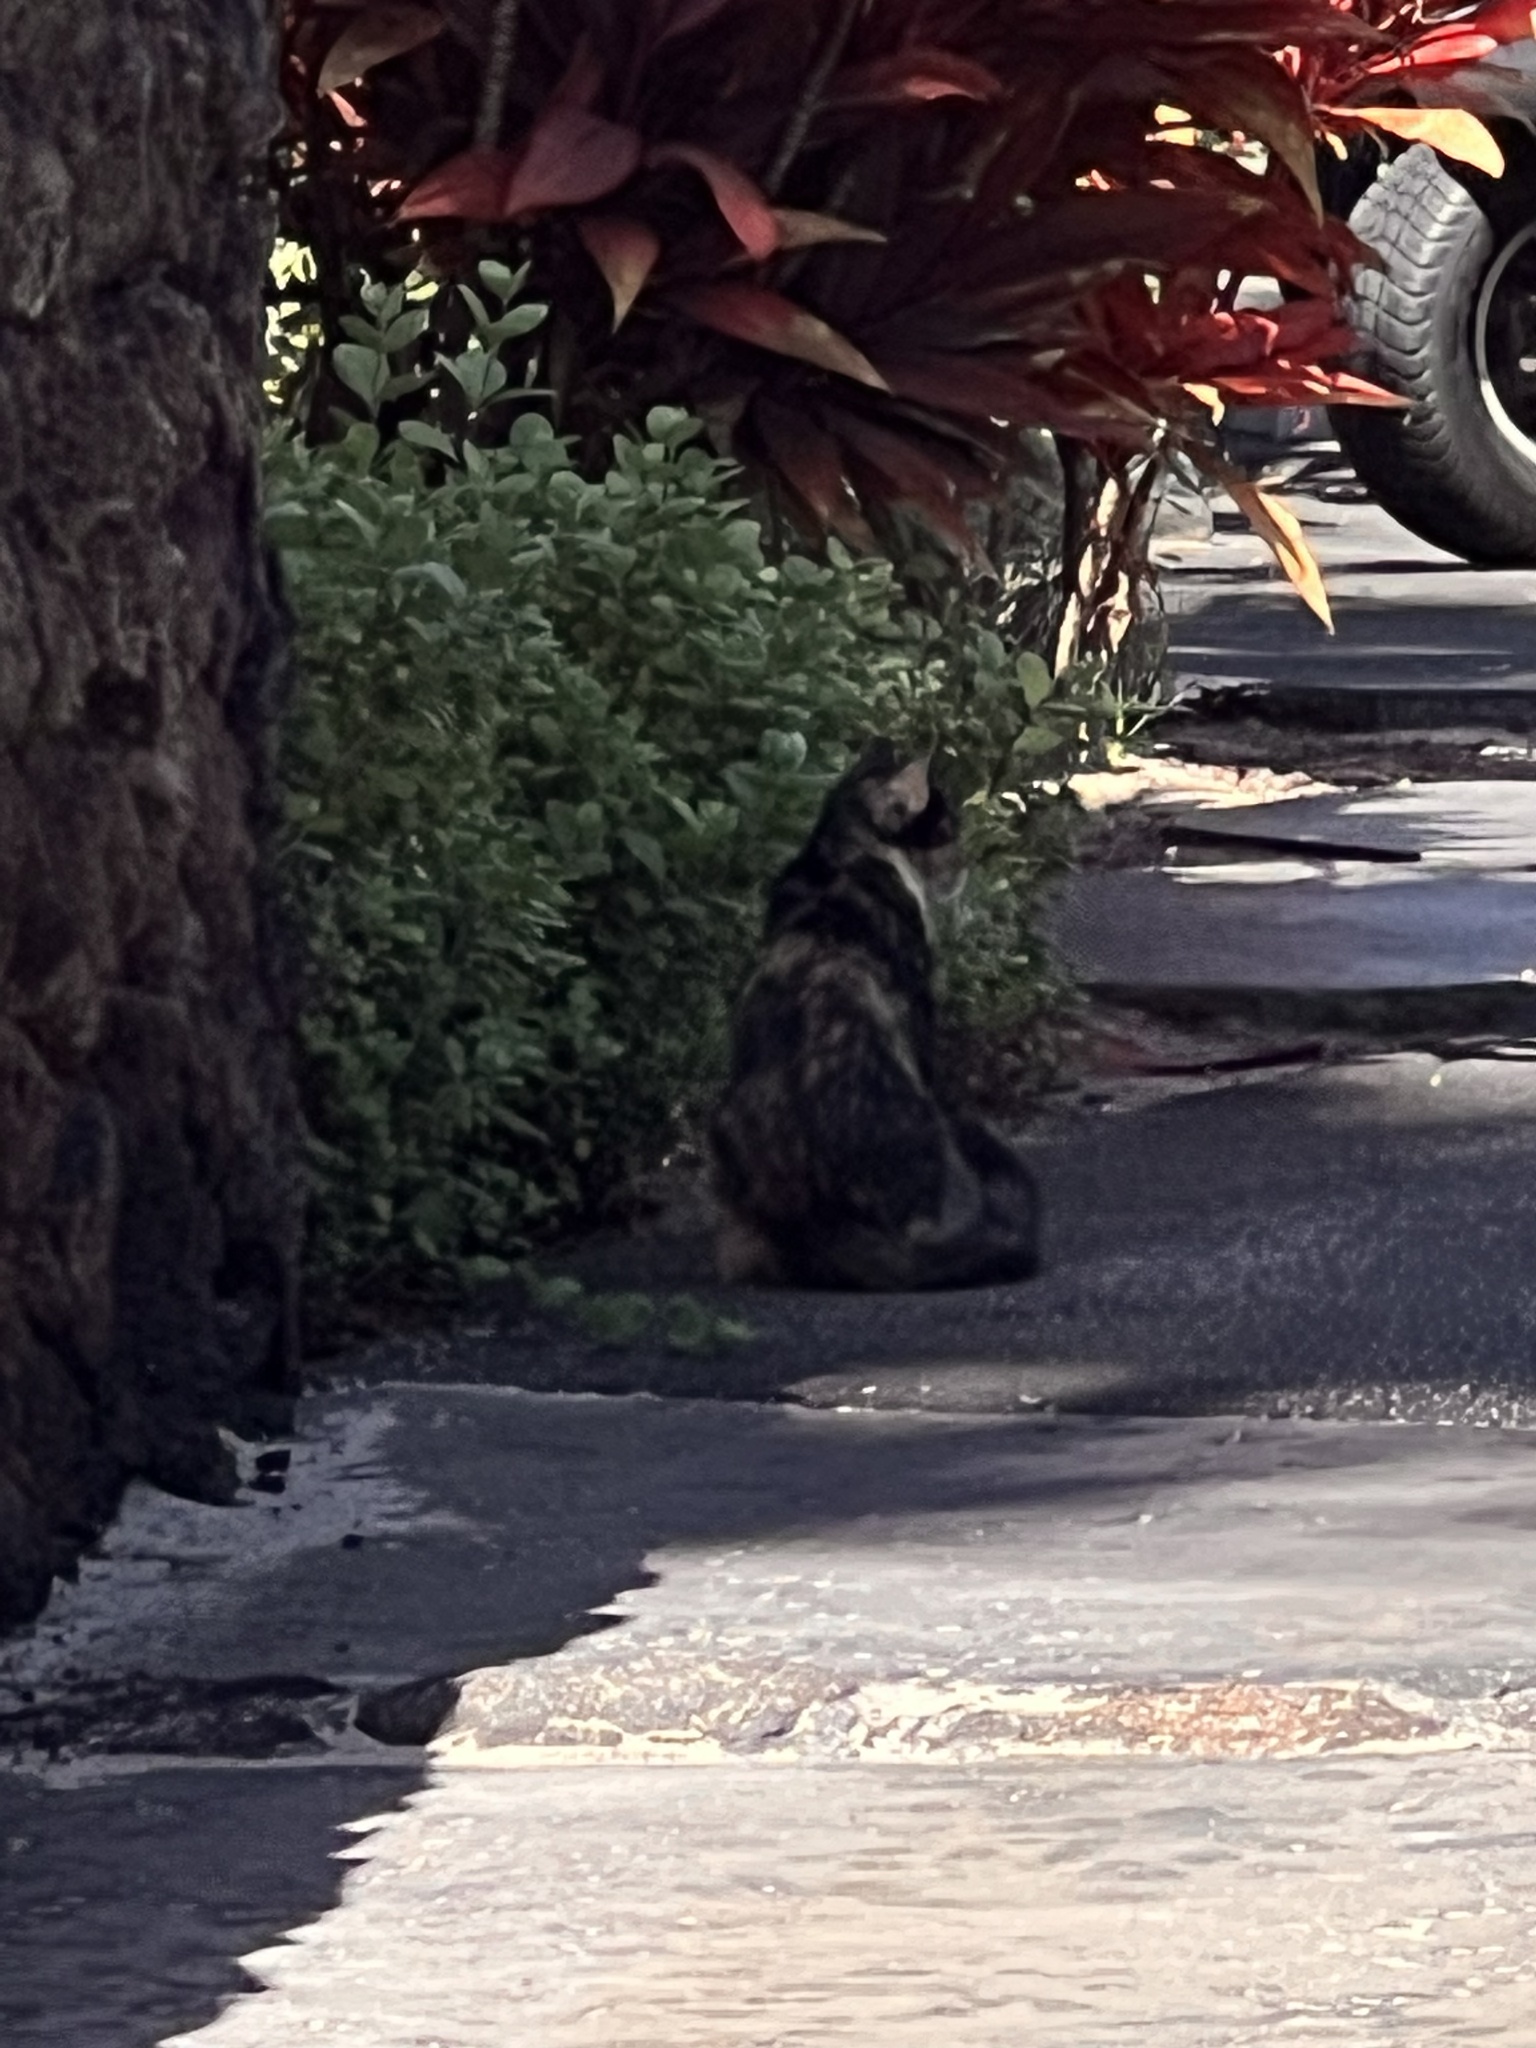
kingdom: Animalia
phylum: Chordata
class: Mammalia
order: Carnivora
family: Felidae
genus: Felis
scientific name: Felis catus
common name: Domestic cat
